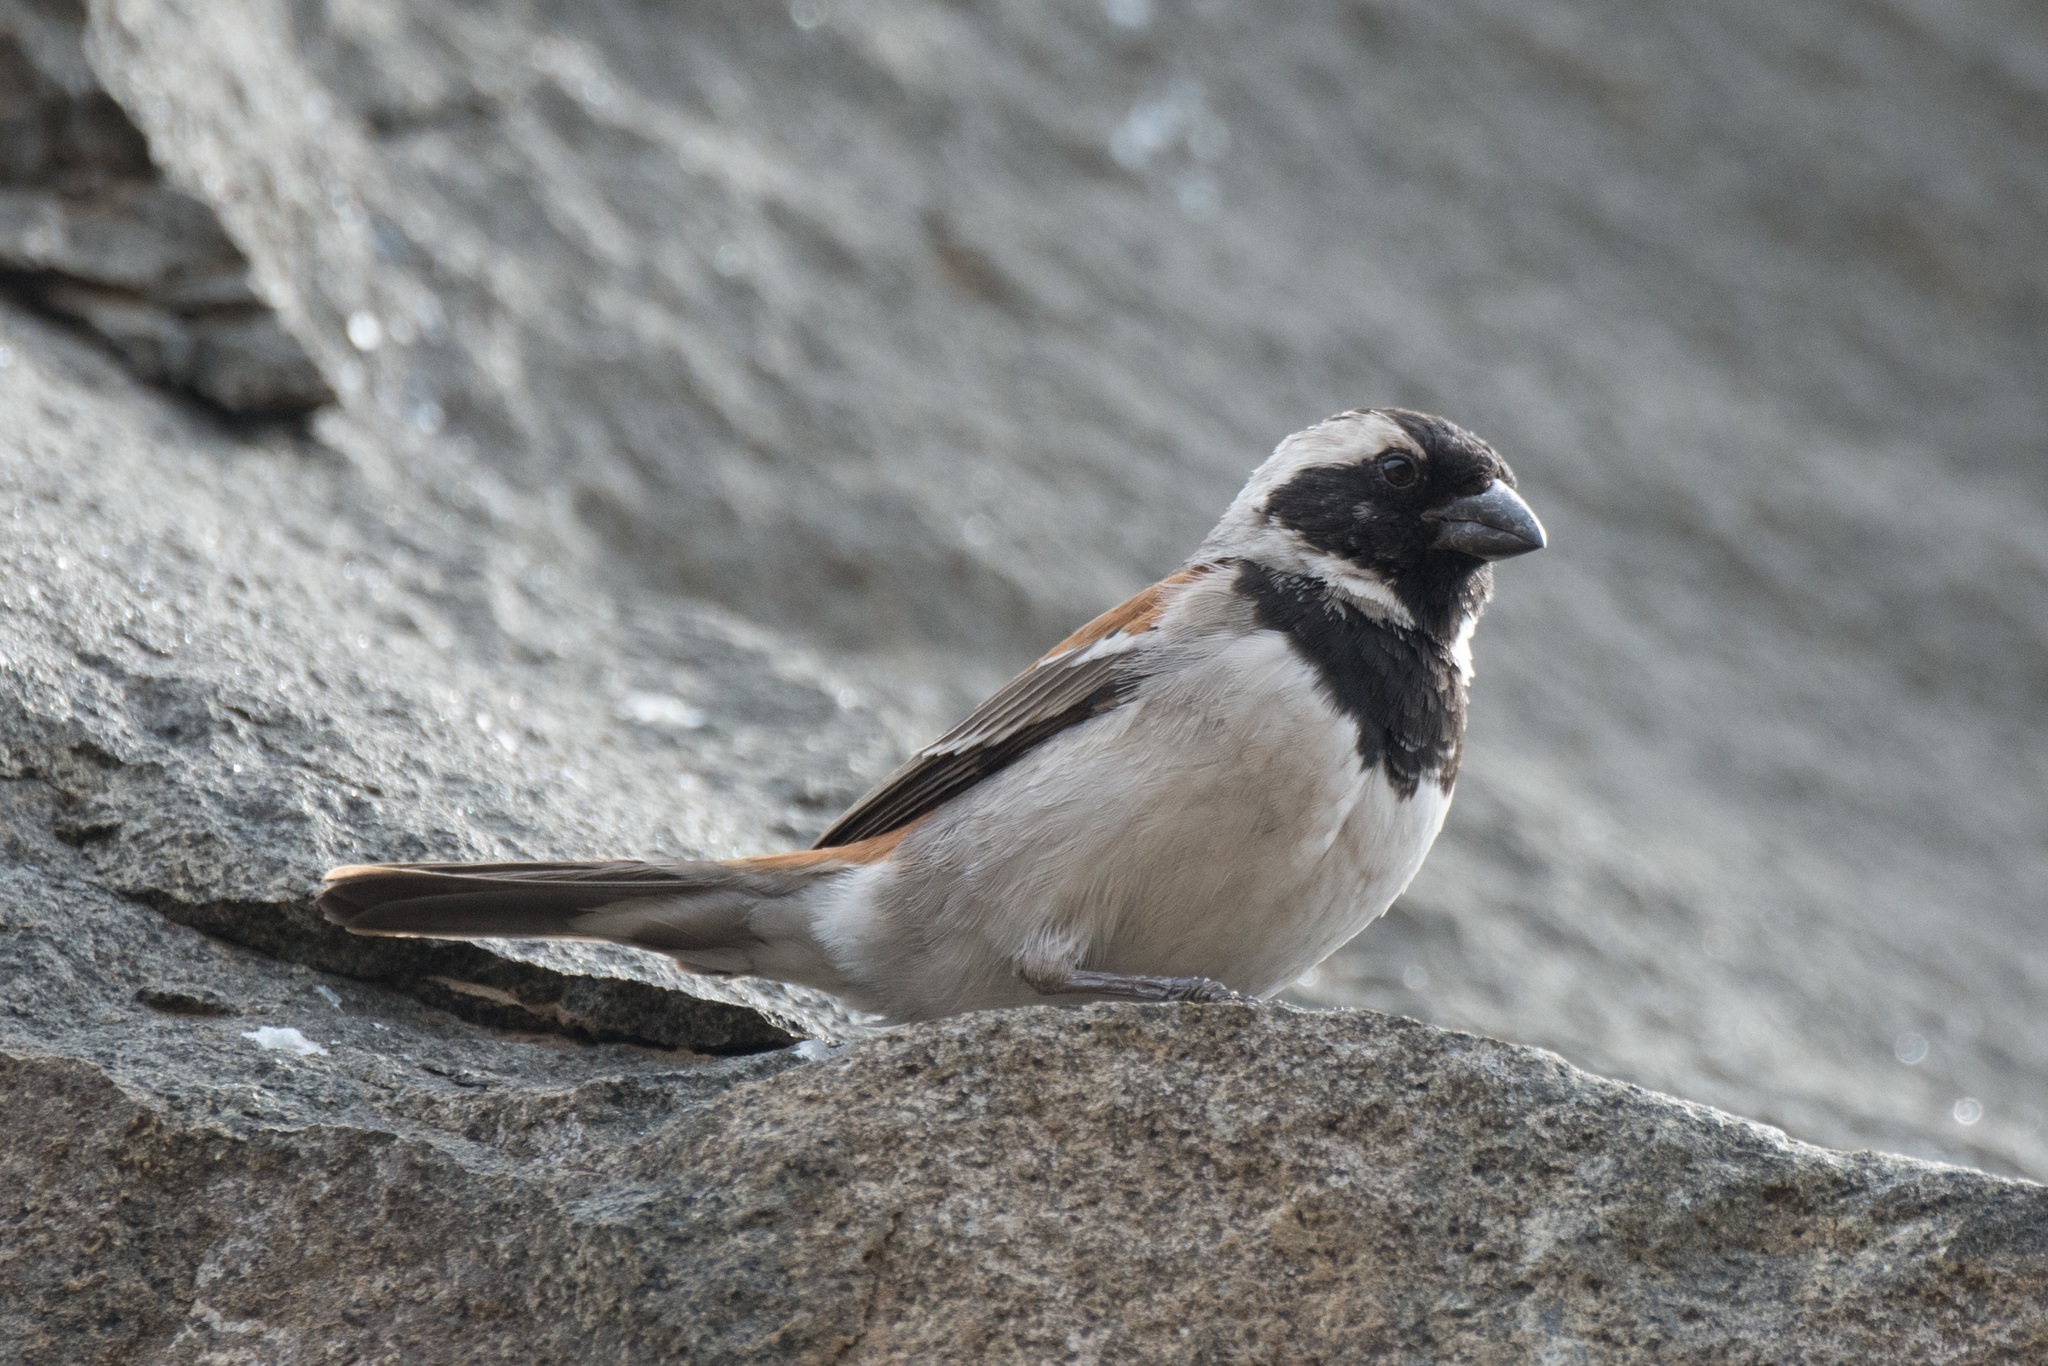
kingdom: Animalia
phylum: Chordata
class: Aves
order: Passeriformes
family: Passeridae
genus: Passer
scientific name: Passer melanurus
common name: Cape sparrow
